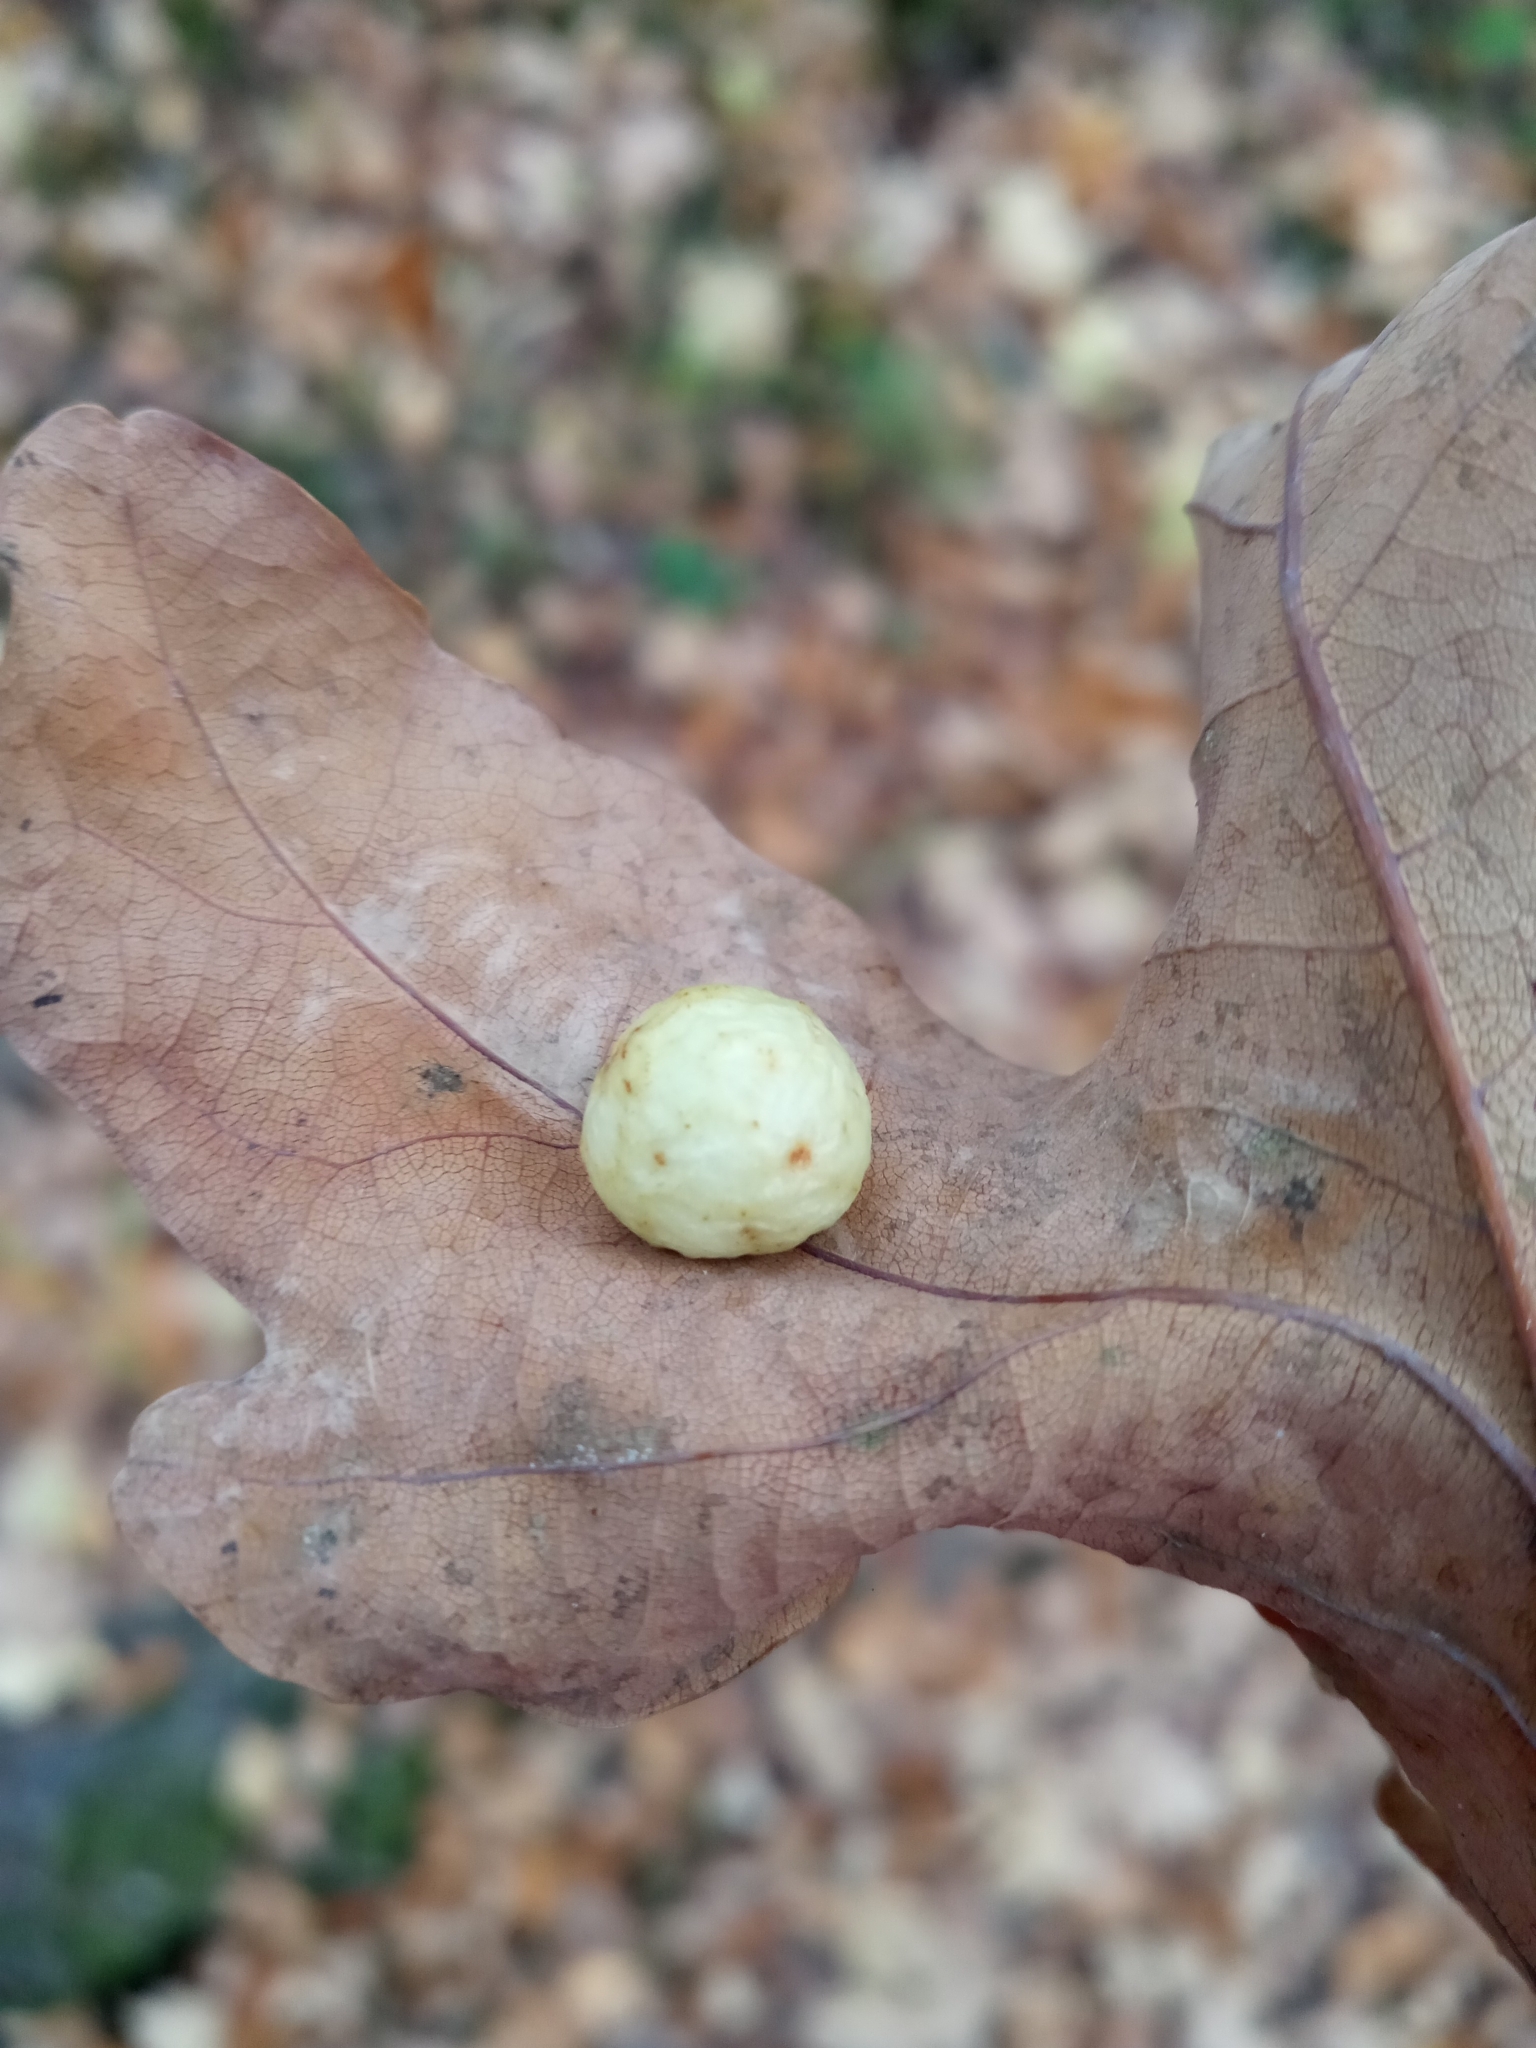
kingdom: Animalia
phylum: Arthropoda
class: Insecta
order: Hymenoptera
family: Cynipidae
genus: Cynips
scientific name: Cynips quercusfolii
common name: Cherry gall
